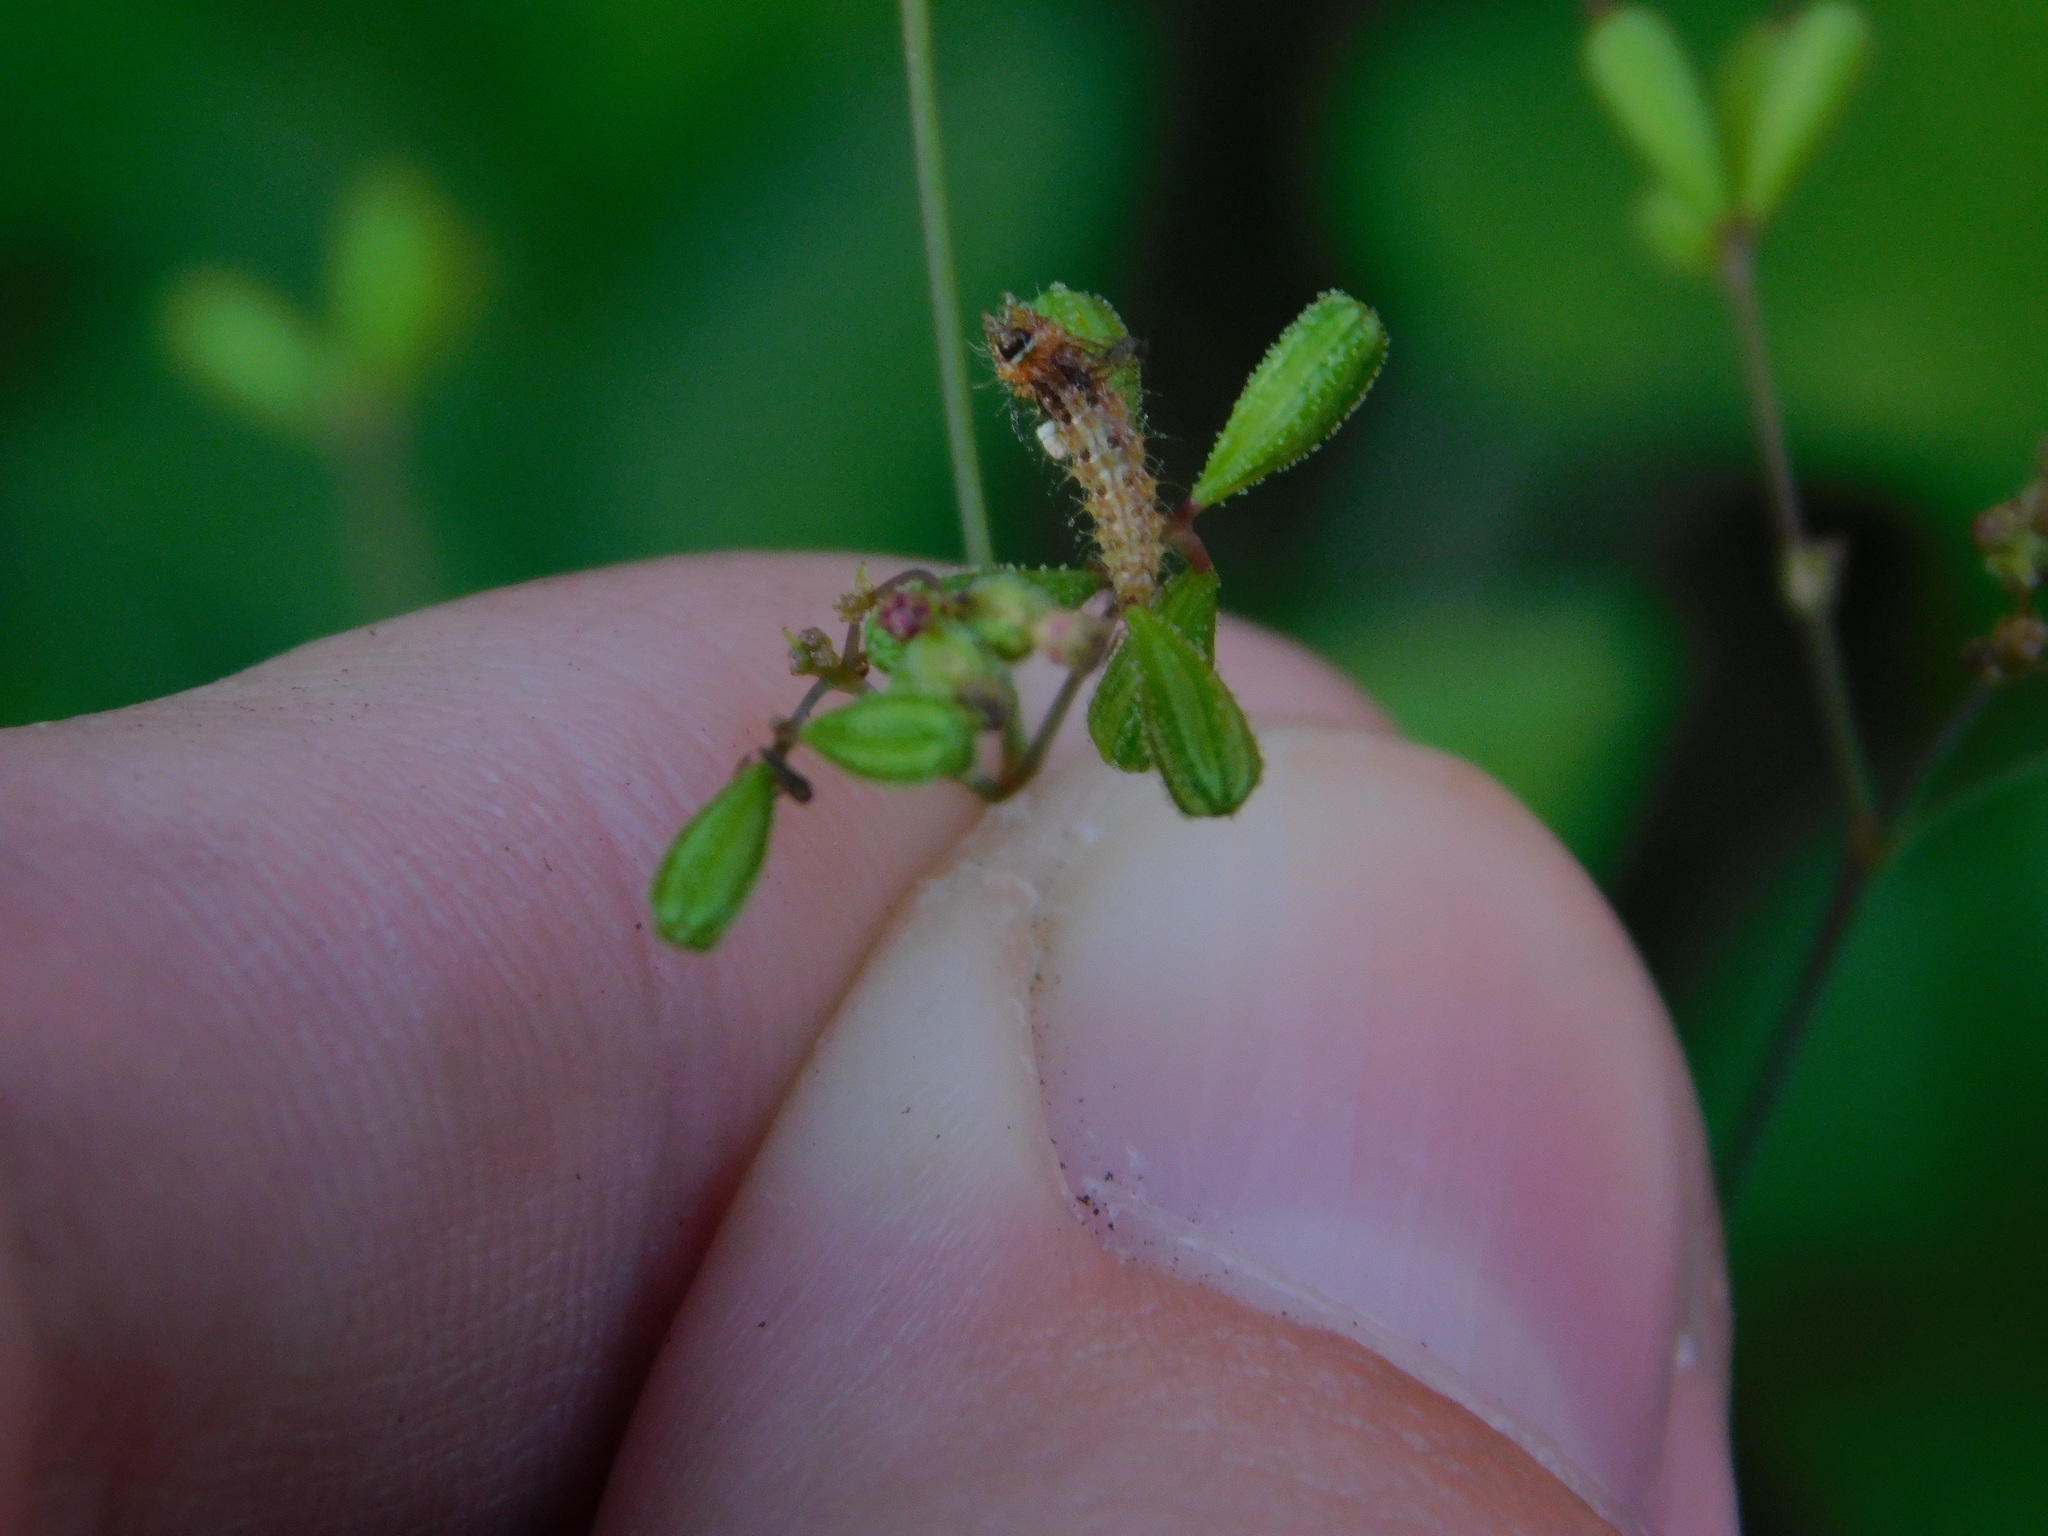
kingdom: Animalia
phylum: Arthropoda
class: Insecta
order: Lepidoptera
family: Pterophoridae
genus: Megalorhipida
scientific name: Megalorhipida leucodactylus
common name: Plume moth
